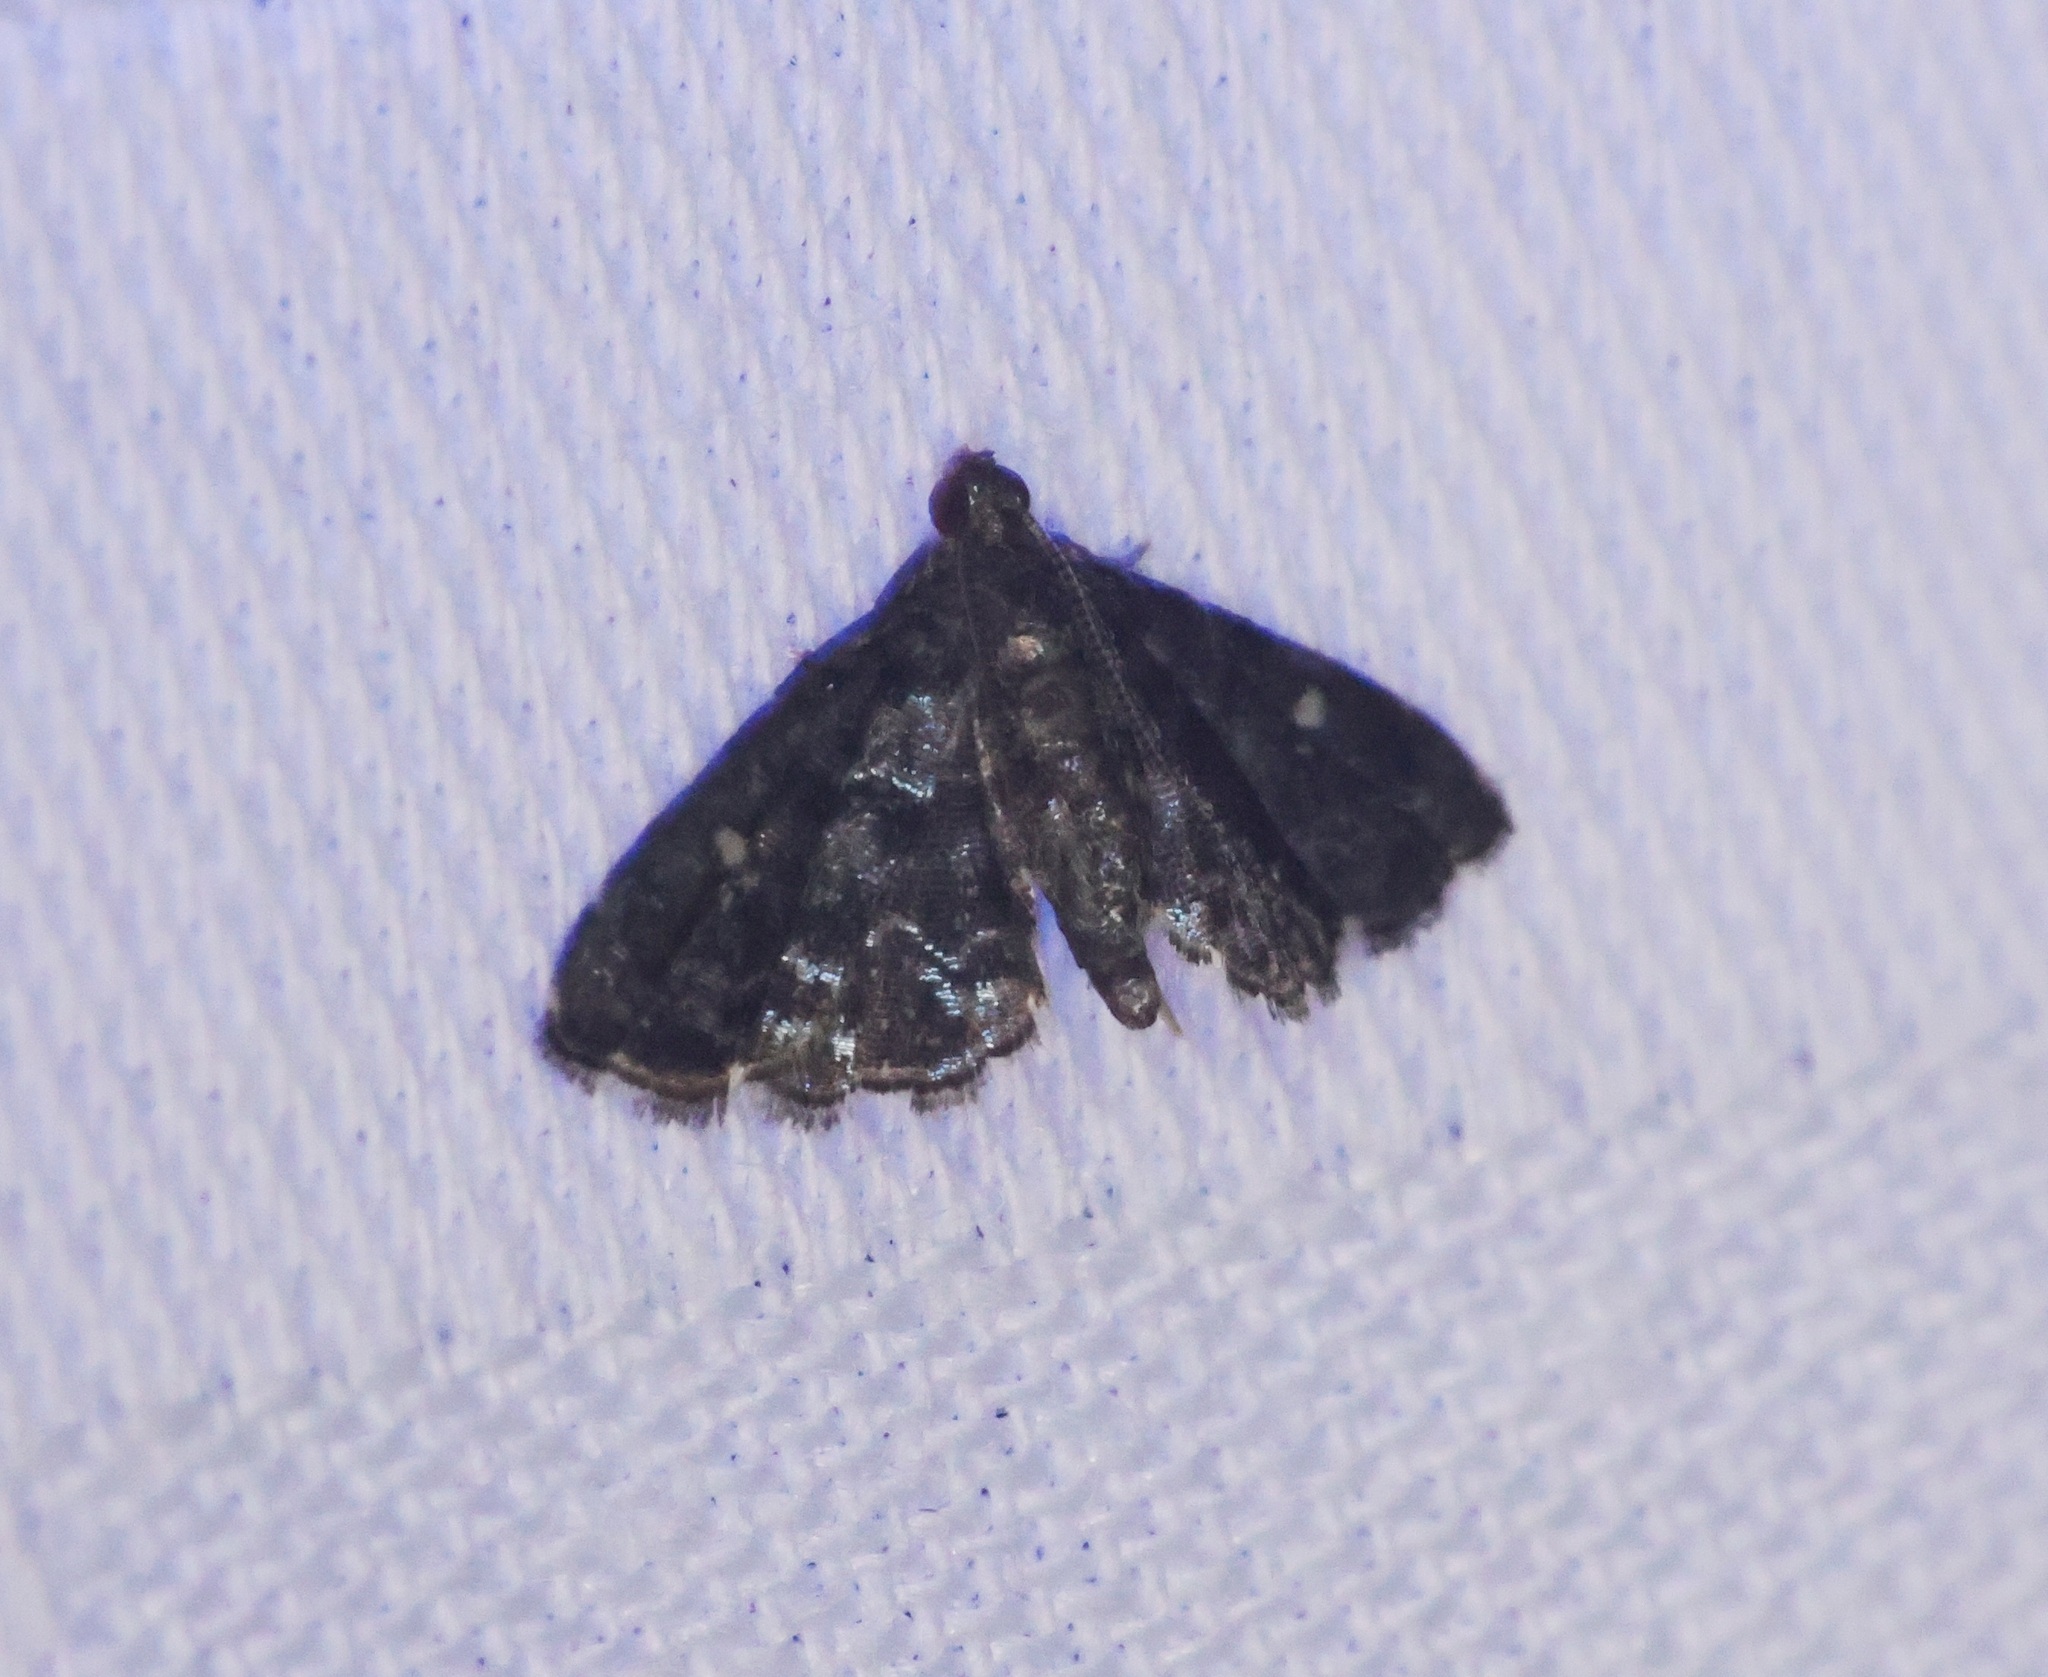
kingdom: Animalia
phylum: Arthropoda
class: Insecta
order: Lepidoptera
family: Pyralidae
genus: Drosophantis
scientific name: Drosophantis caeruleata
